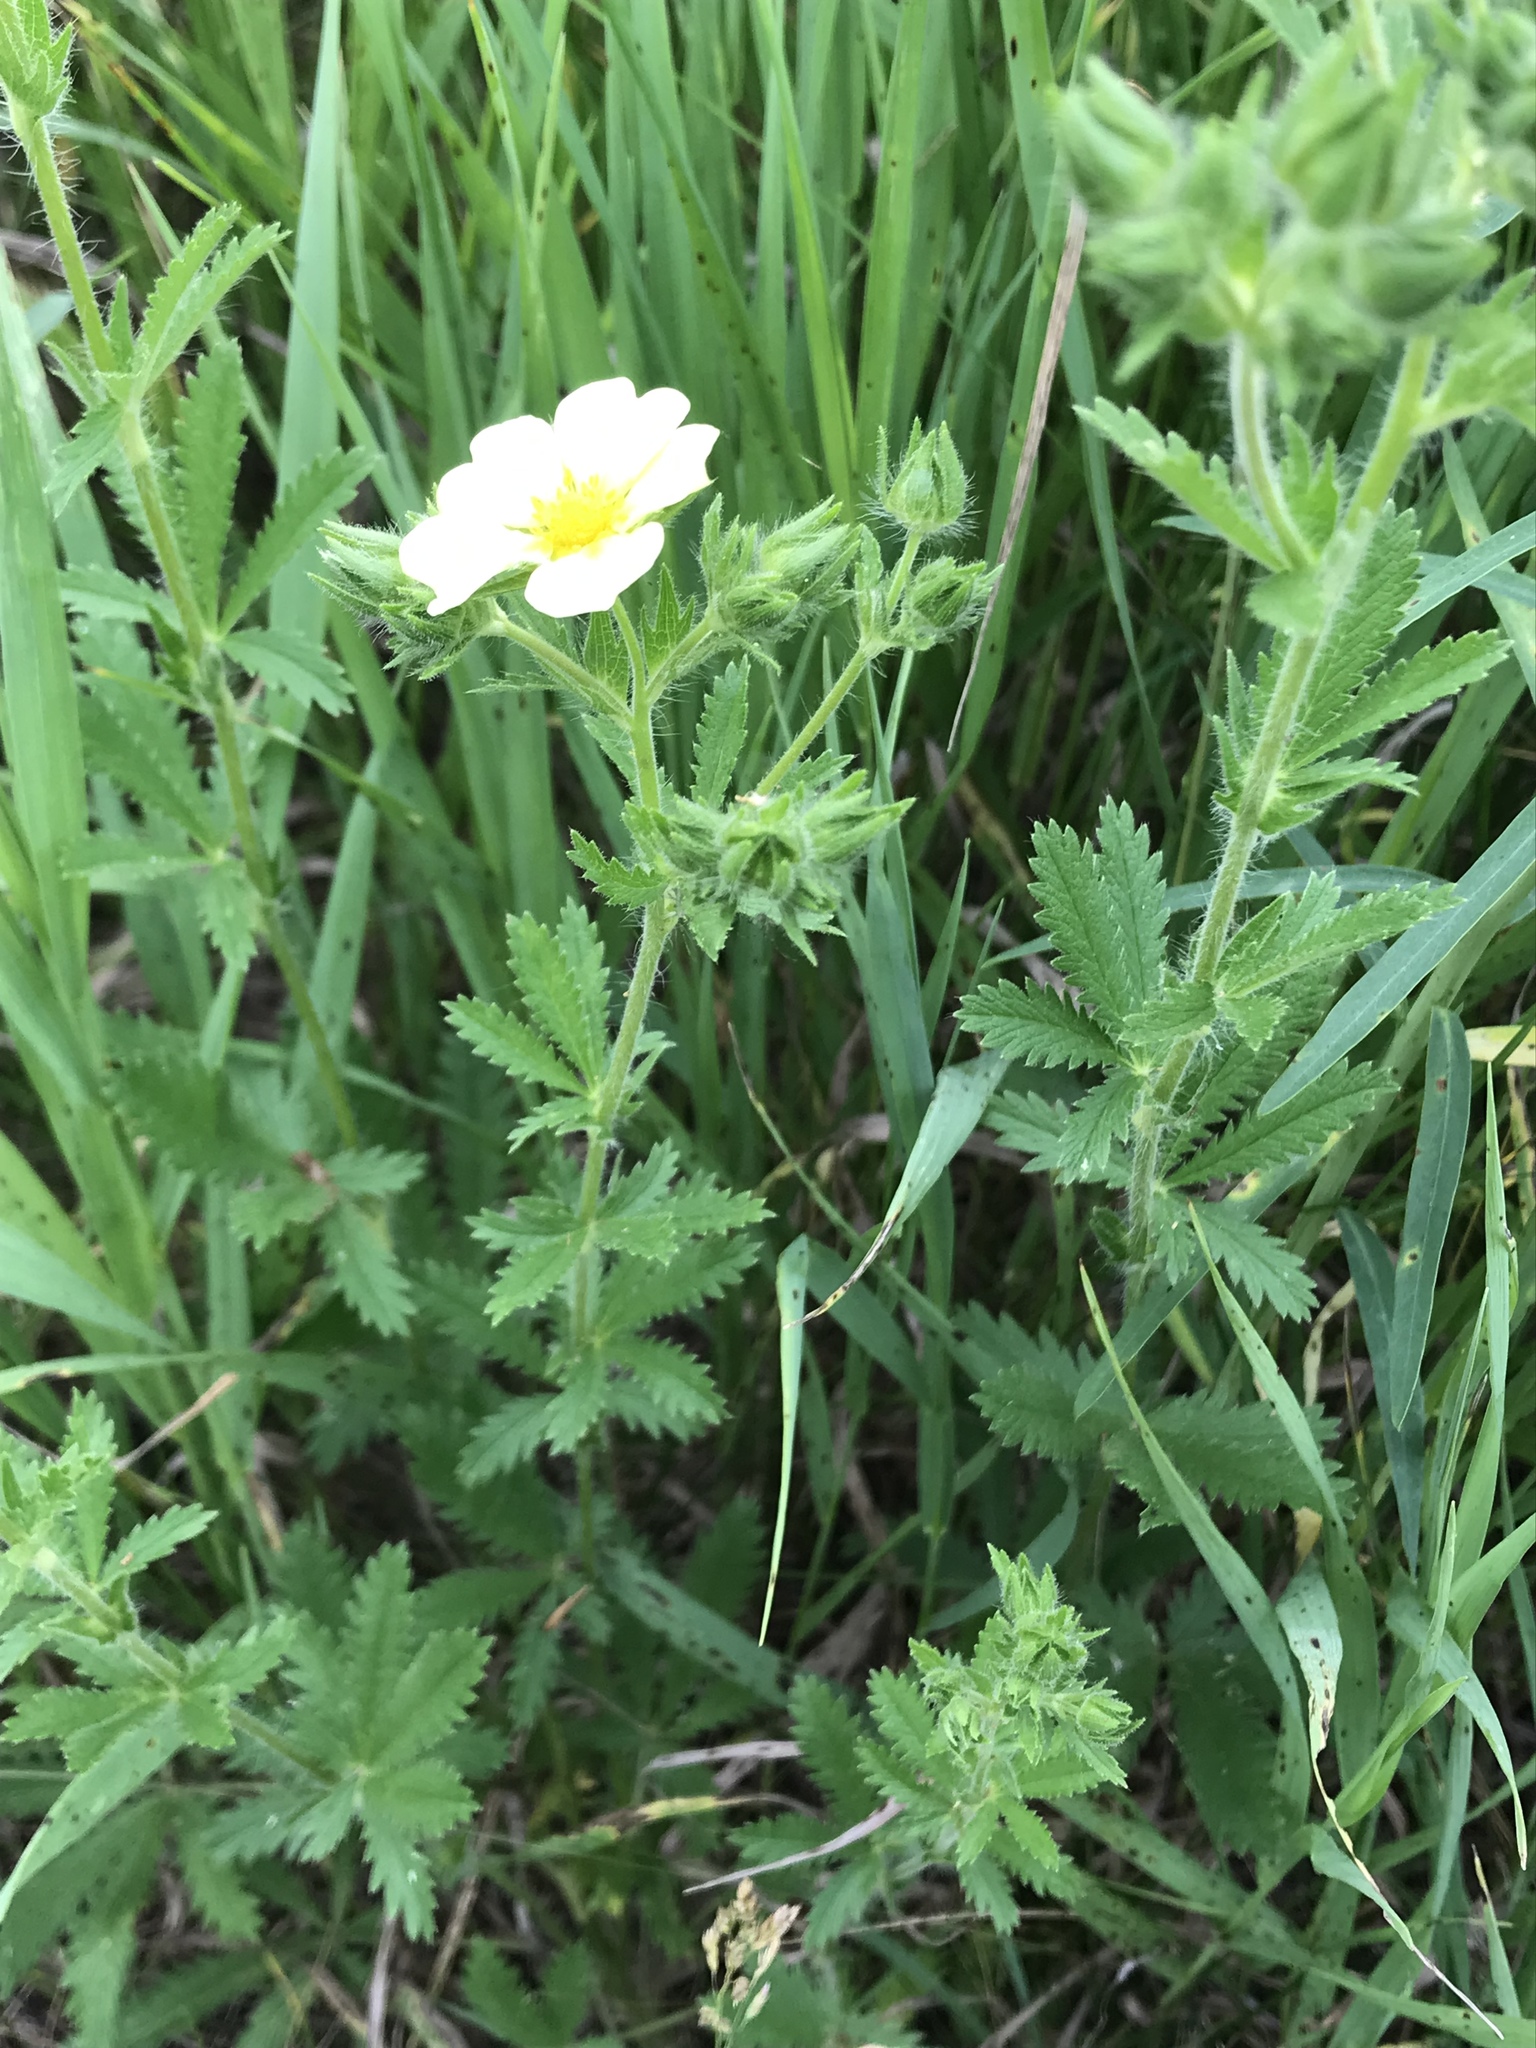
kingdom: Plantae
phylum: Tracheophyta
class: Magnoliopsida
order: Rosales
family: Rosaceae
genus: Potentilla
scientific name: Potentilla recta
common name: Sulphur cinquefoil
